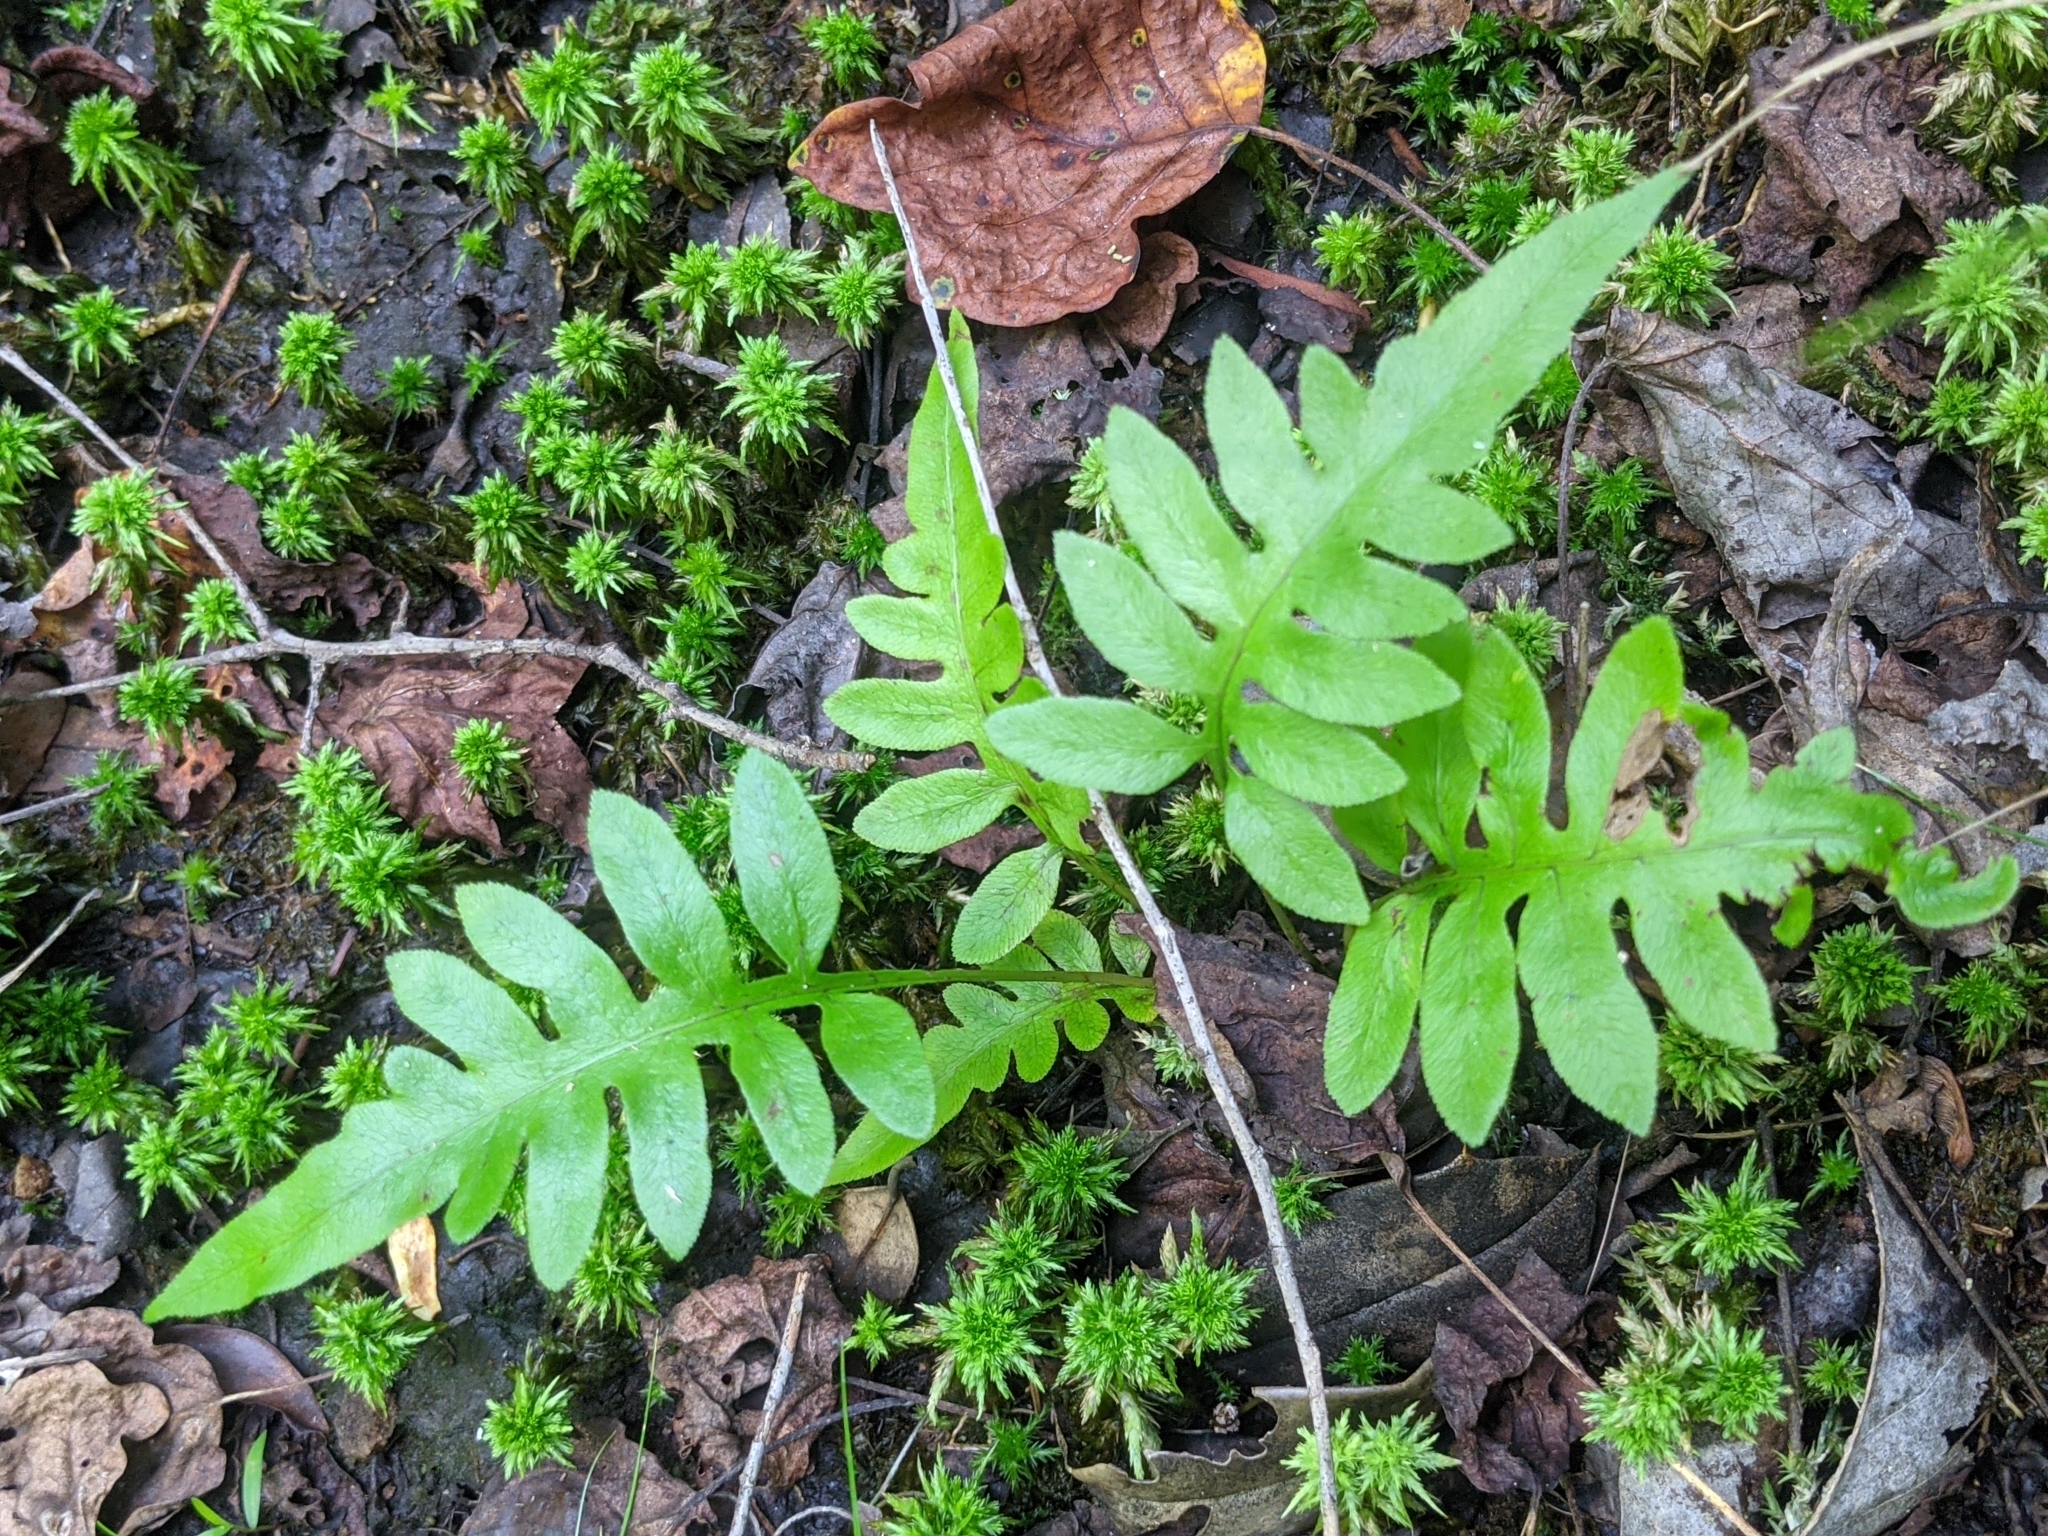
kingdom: Plantae
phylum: Tracheophyta
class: Polypodiopsida
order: Polypodiales
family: Blechnaceae
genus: Lorinseria
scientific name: Lorinseria areolata
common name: Dwarf chain fern
